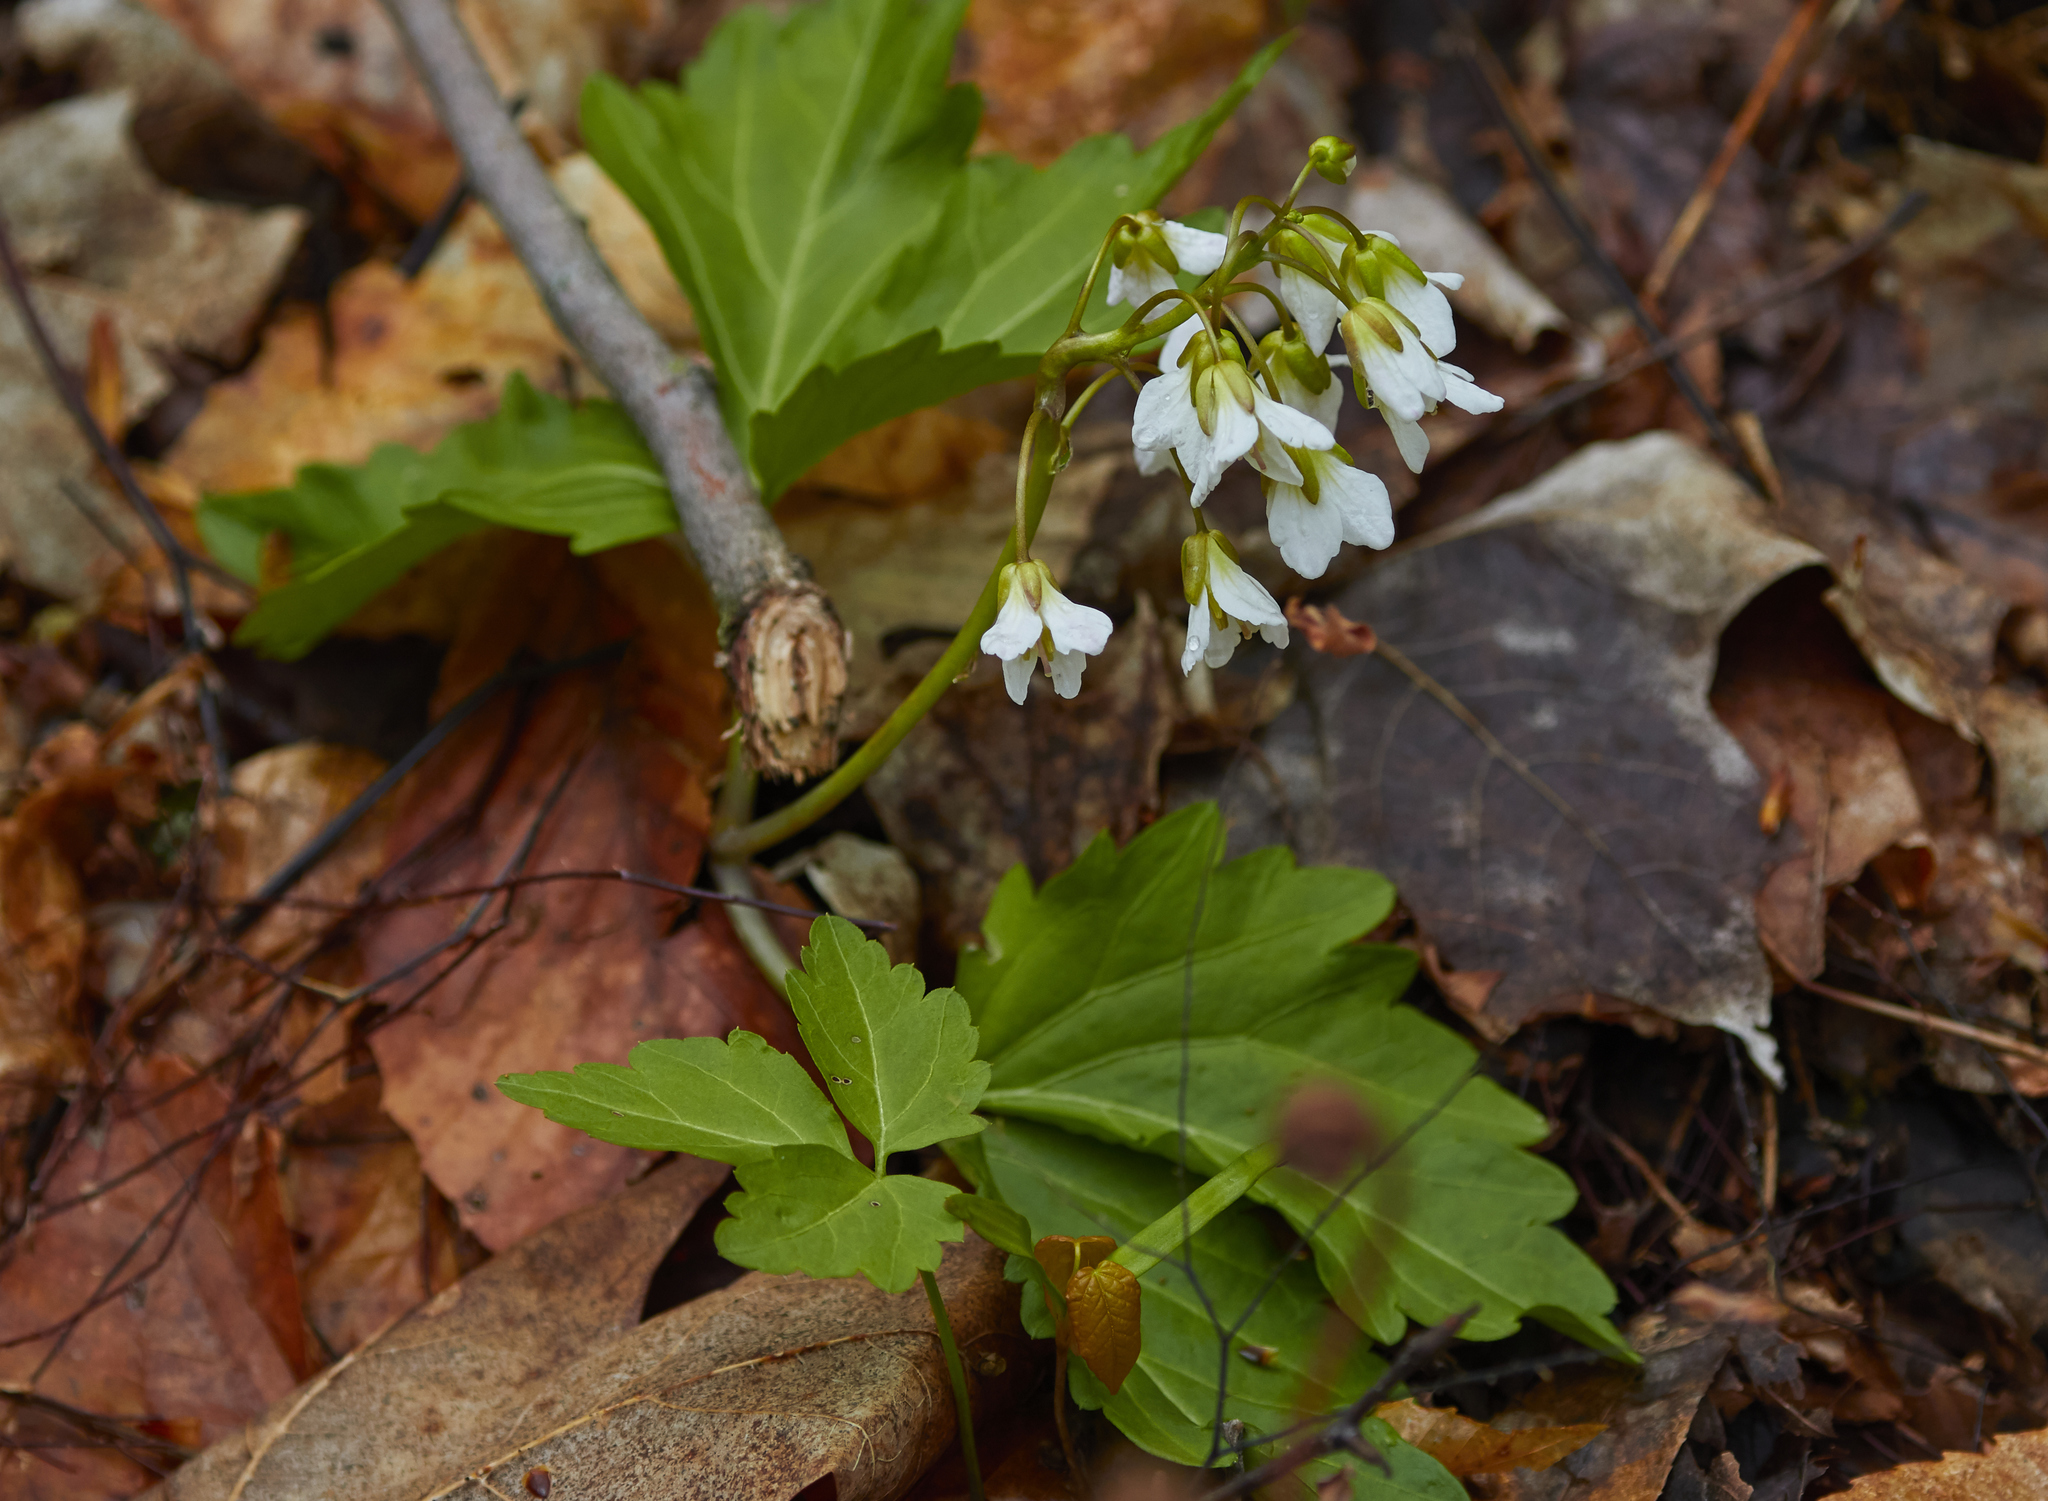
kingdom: Plantae
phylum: Tracheophyta
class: Magnoliopsida
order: Brassicales
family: Brassicaceae
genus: Cardamine
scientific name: Cardamine diphylla
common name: Broad-leaved toothwort
